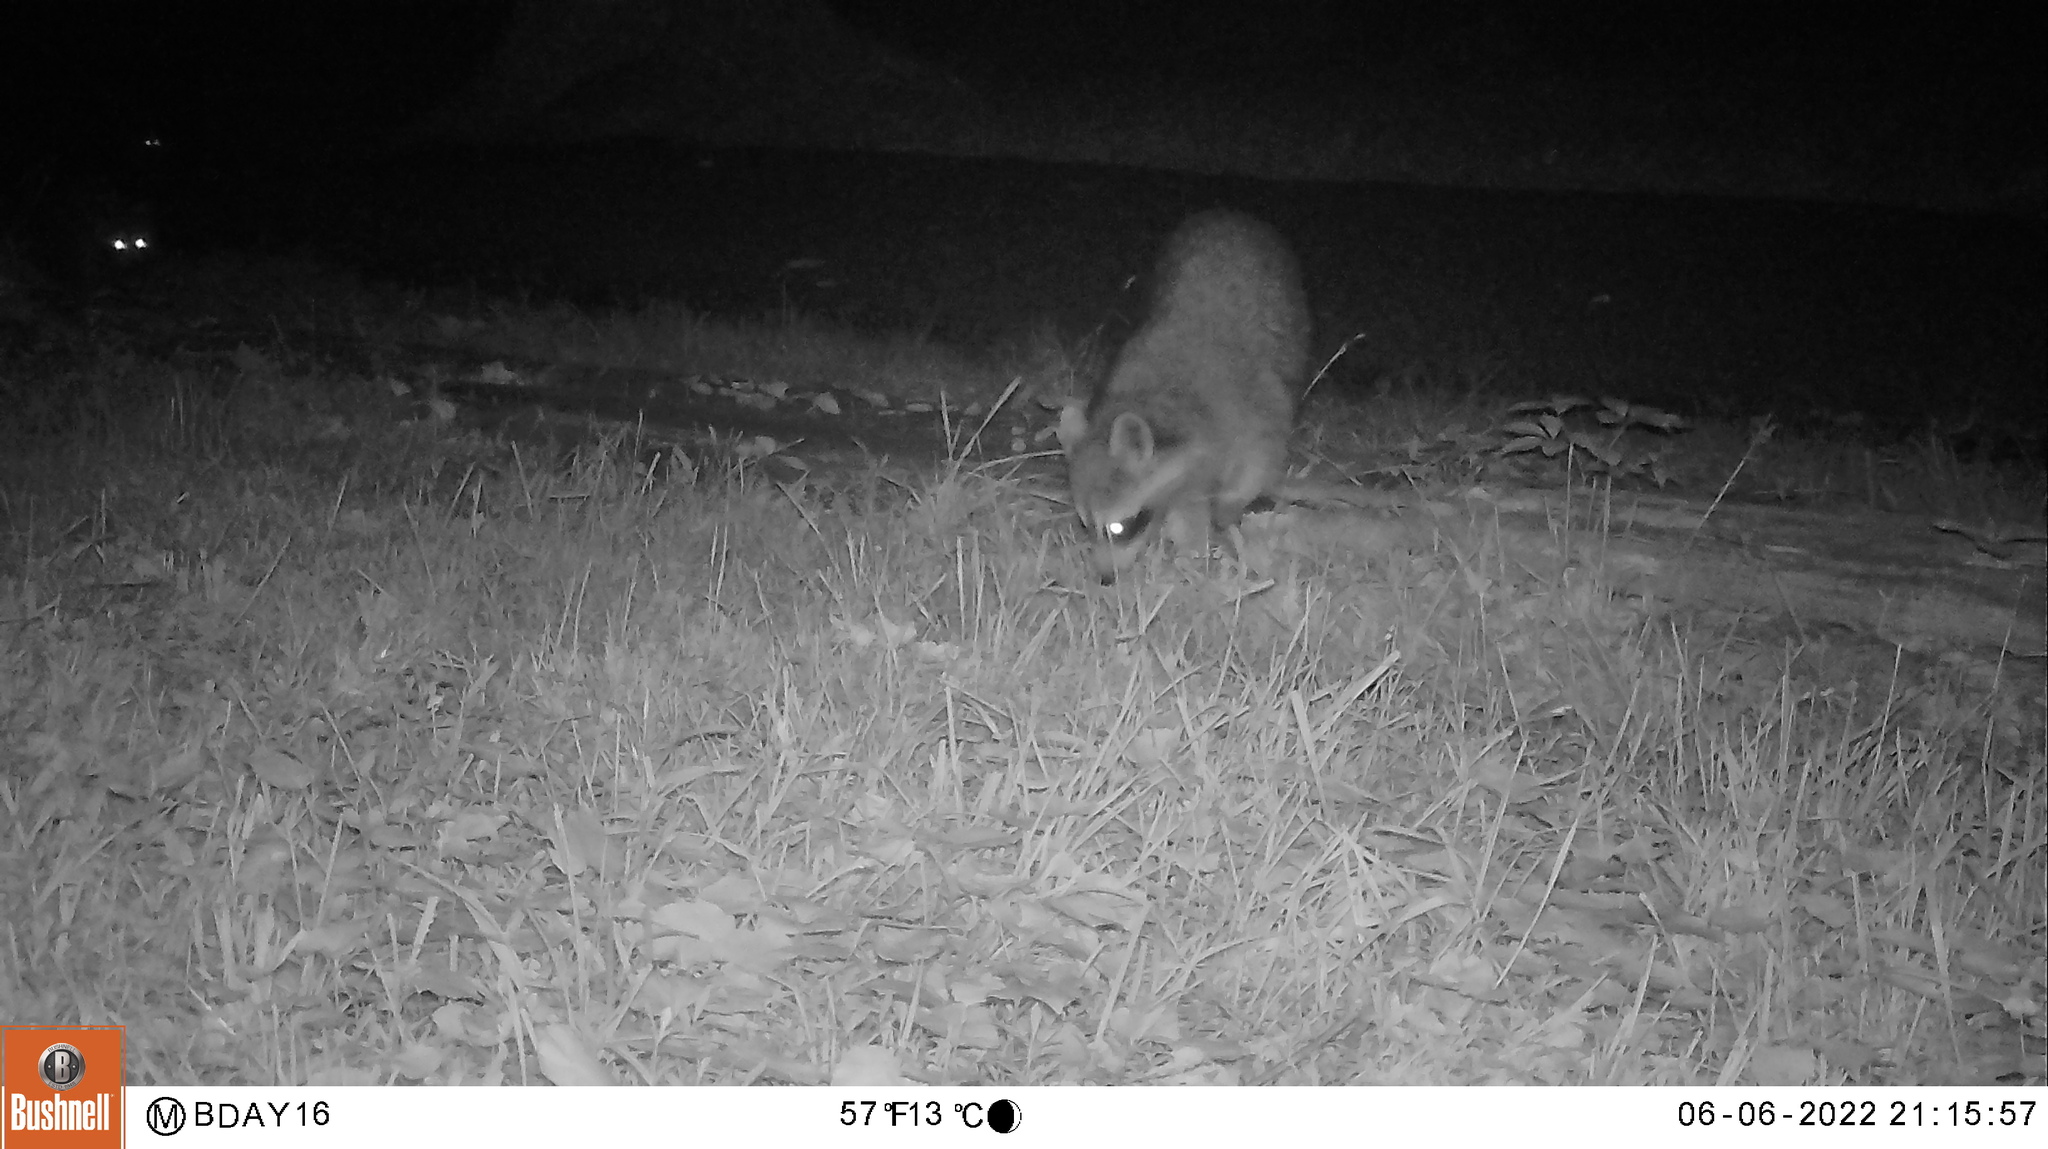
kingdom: Animalia
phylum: Chordata
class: Mammalia
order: Carnivora
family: Procyonidae
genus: Procyon
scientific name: Procyon lotor
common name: Raccoon
